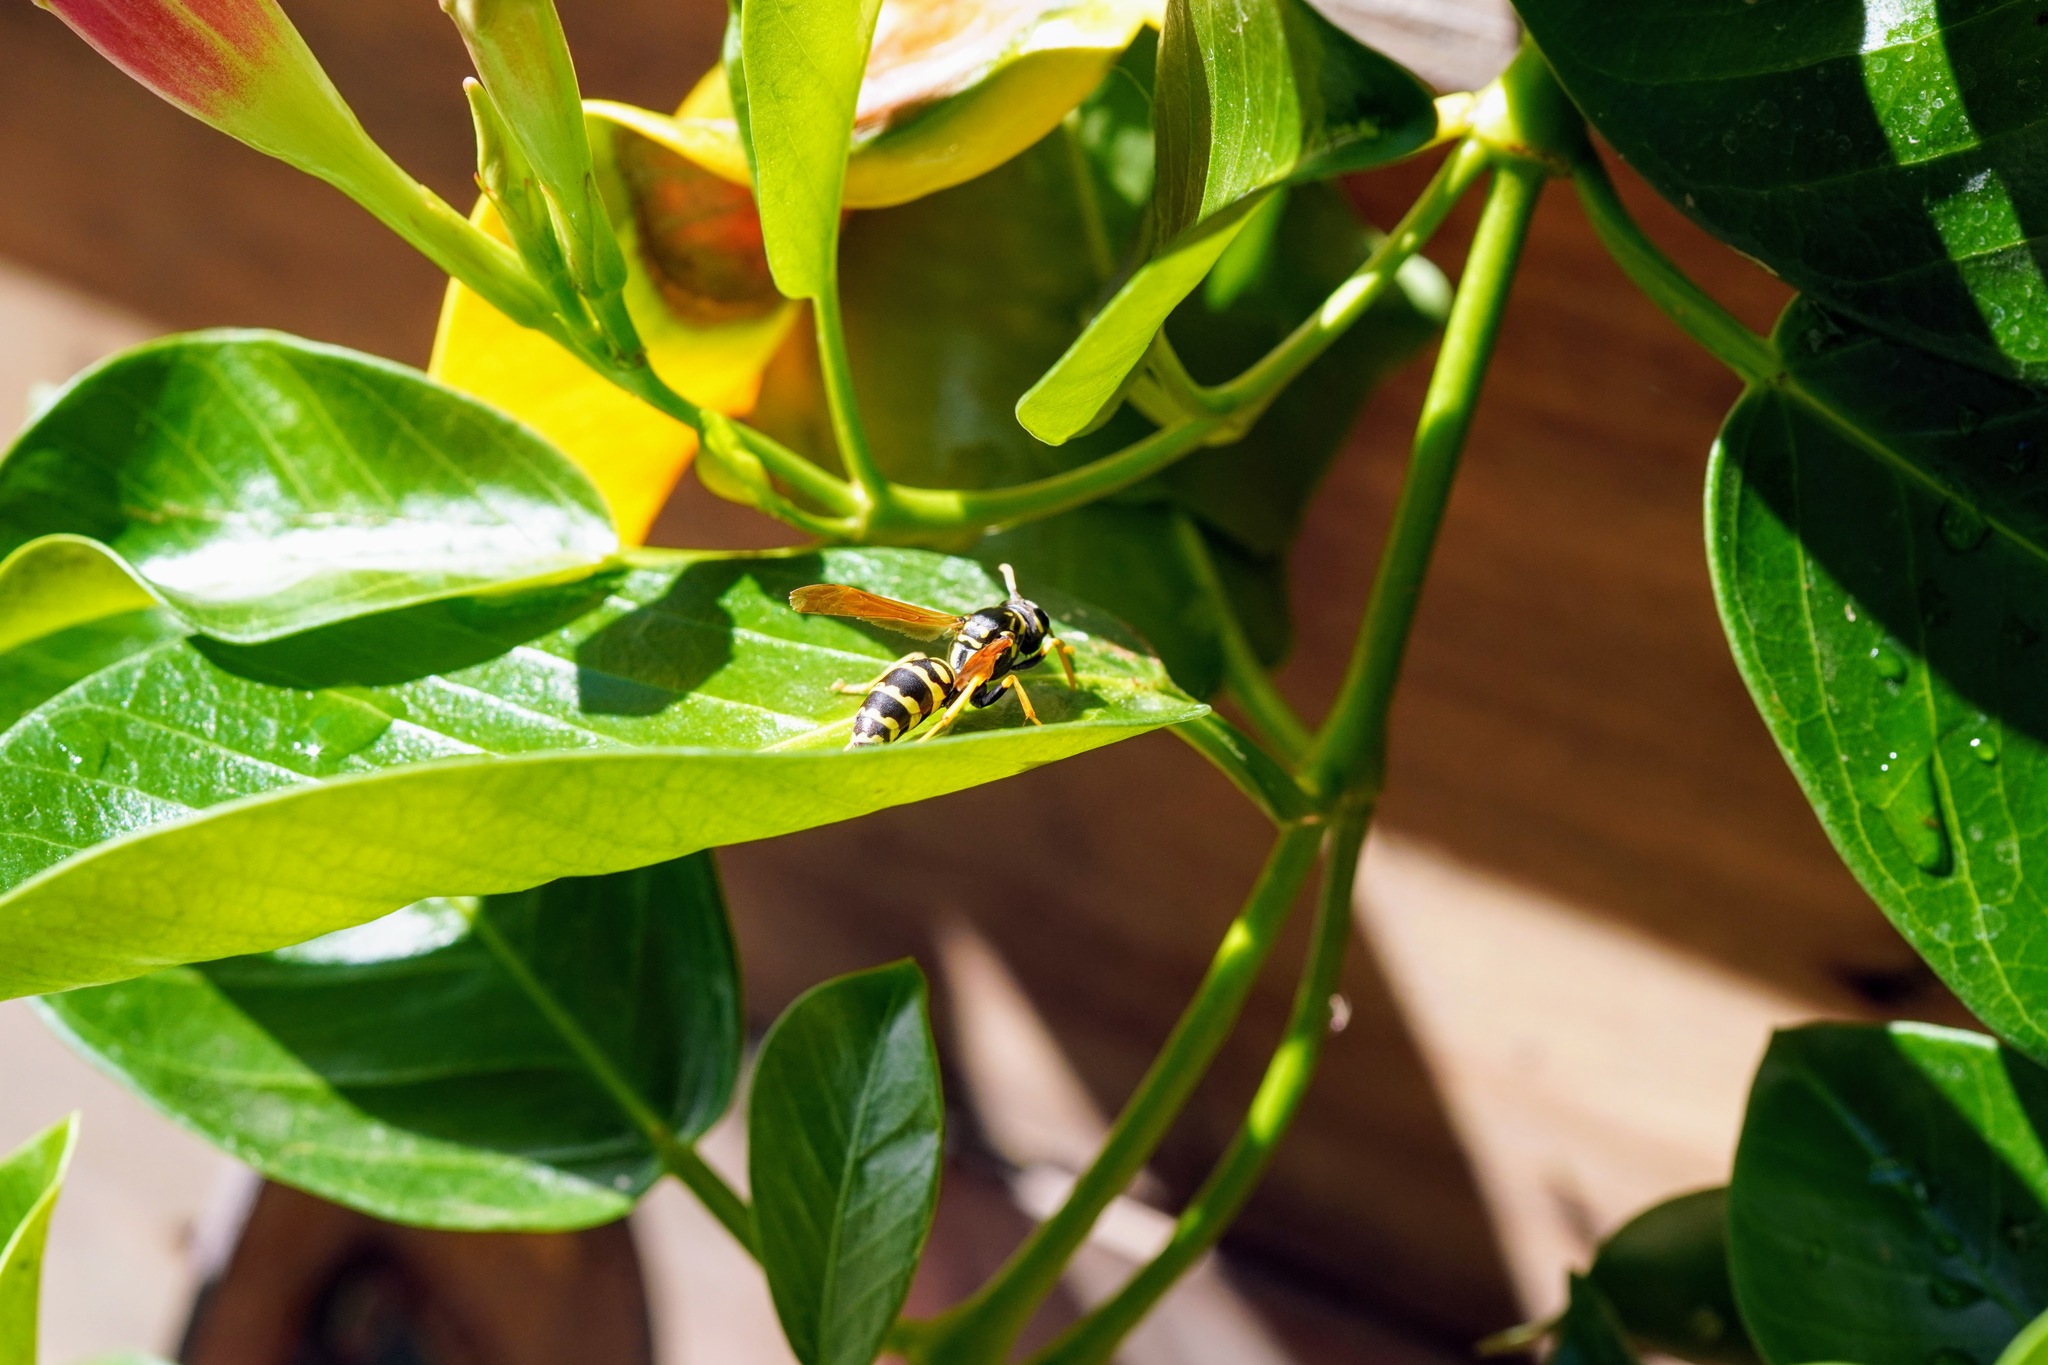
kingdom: Animalia
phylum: Arthropoda
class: Insecta
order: Hymenoptera
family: Eumenidae
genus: Polistes
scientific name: Polistes dominula
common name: Paper wasp
